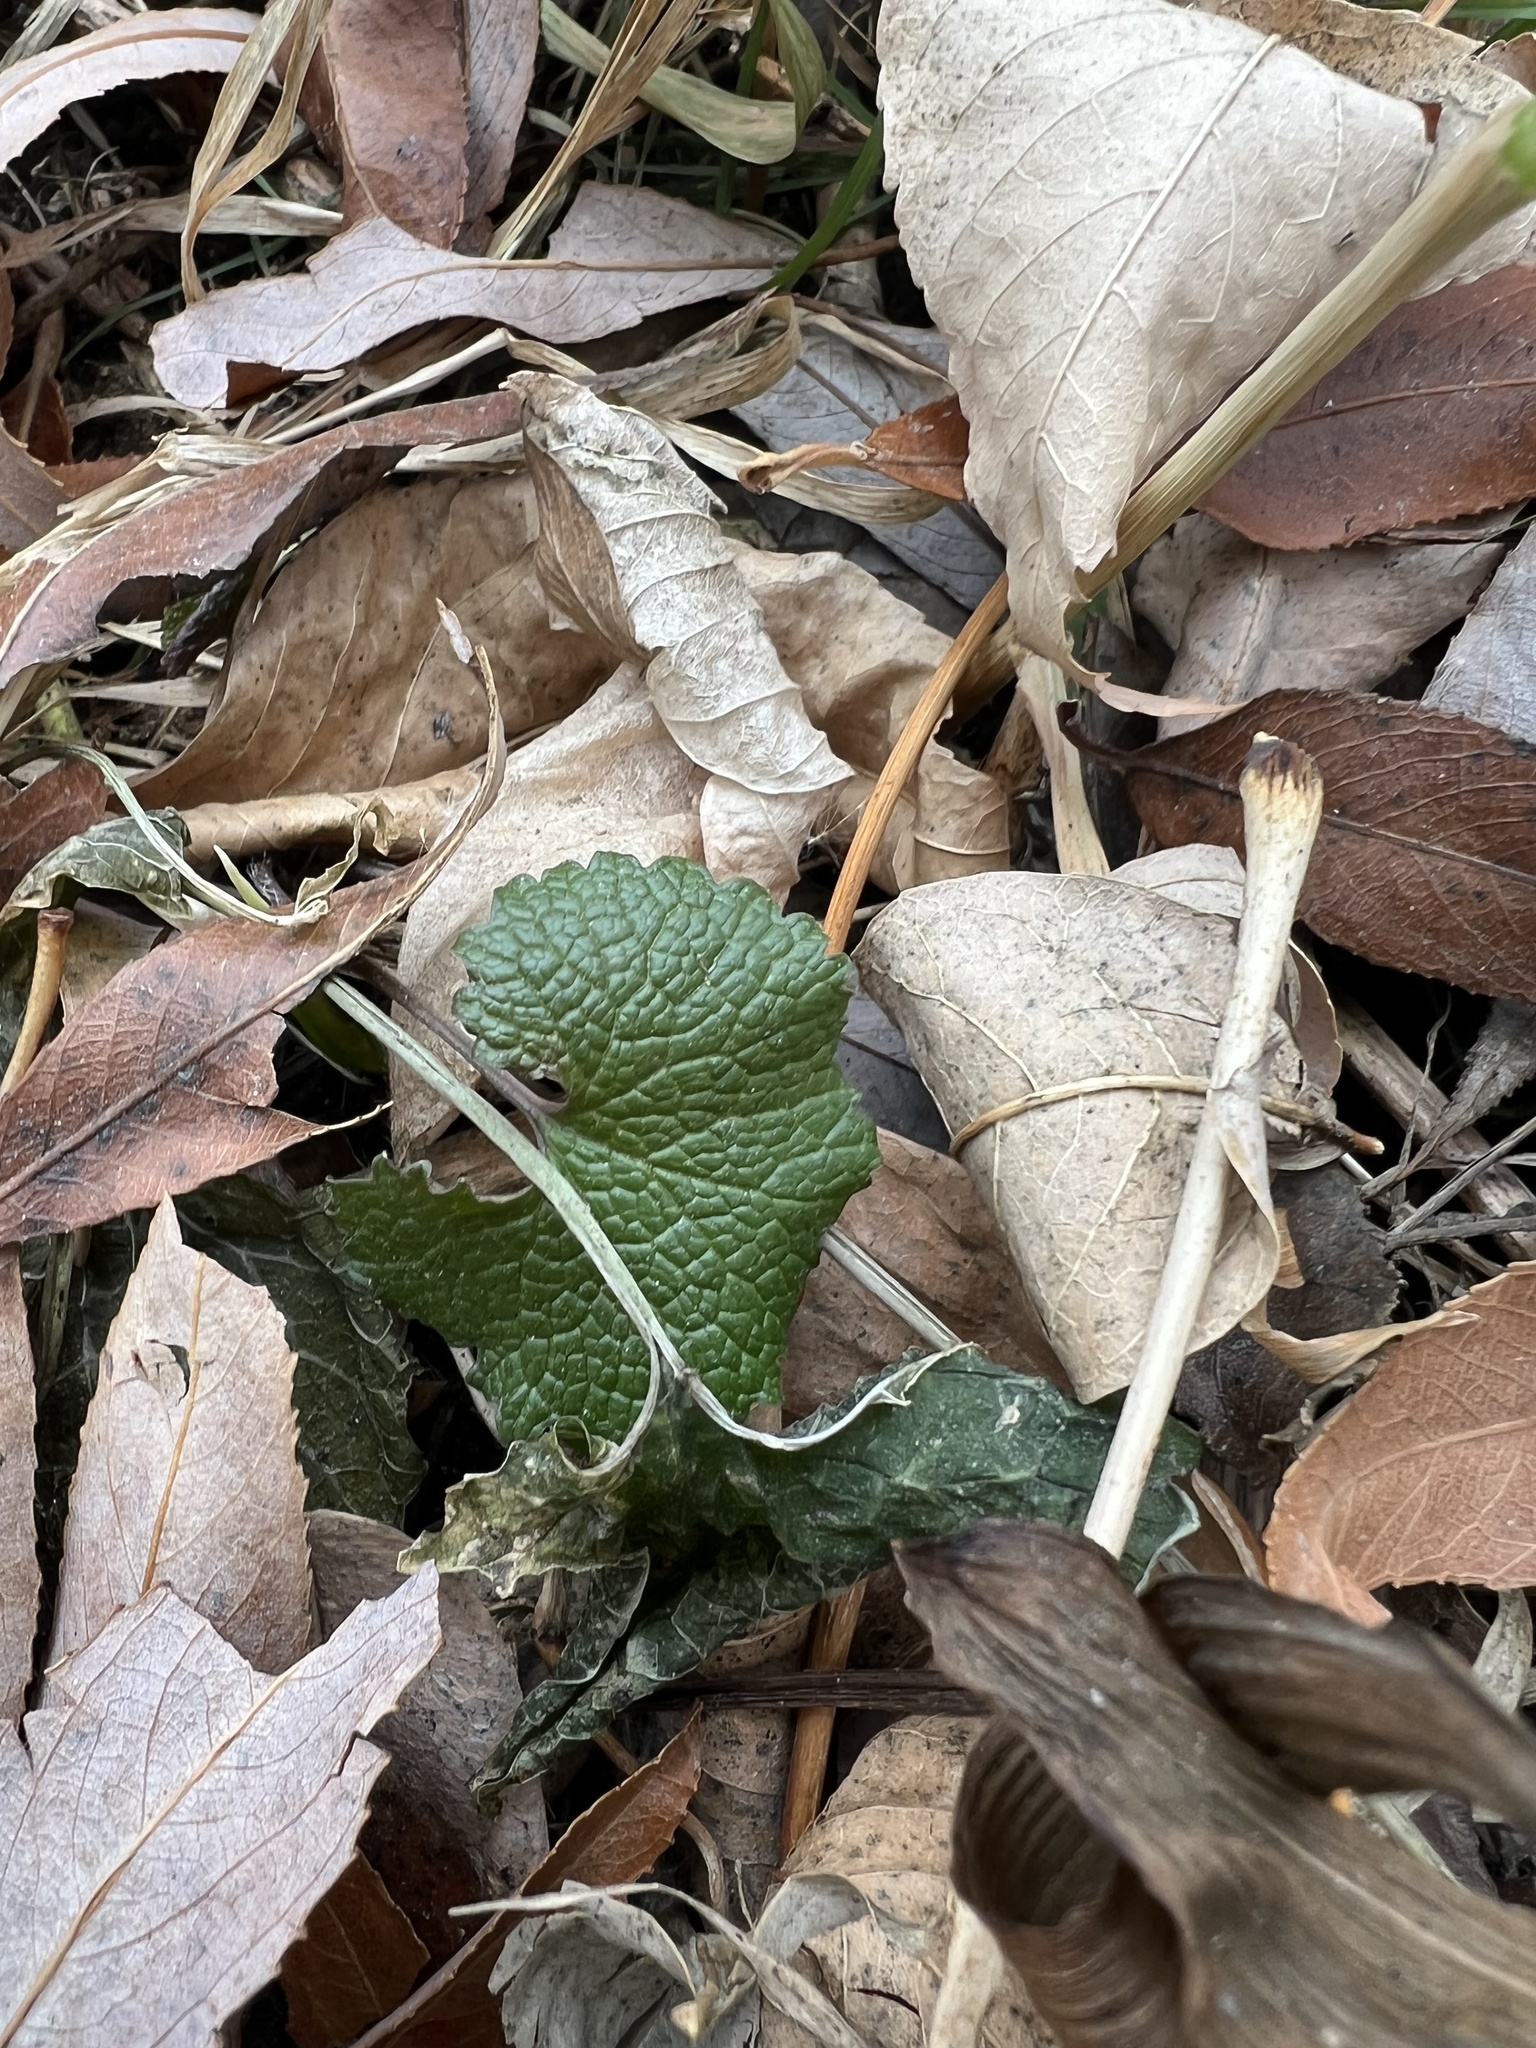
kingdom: Plantae
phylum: Tracheophyta
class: Magnoliopsida
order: Brassicales
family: Brassicaceae
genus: Alliaria
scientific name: Alliaria petiolata
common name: Garlic mustard
